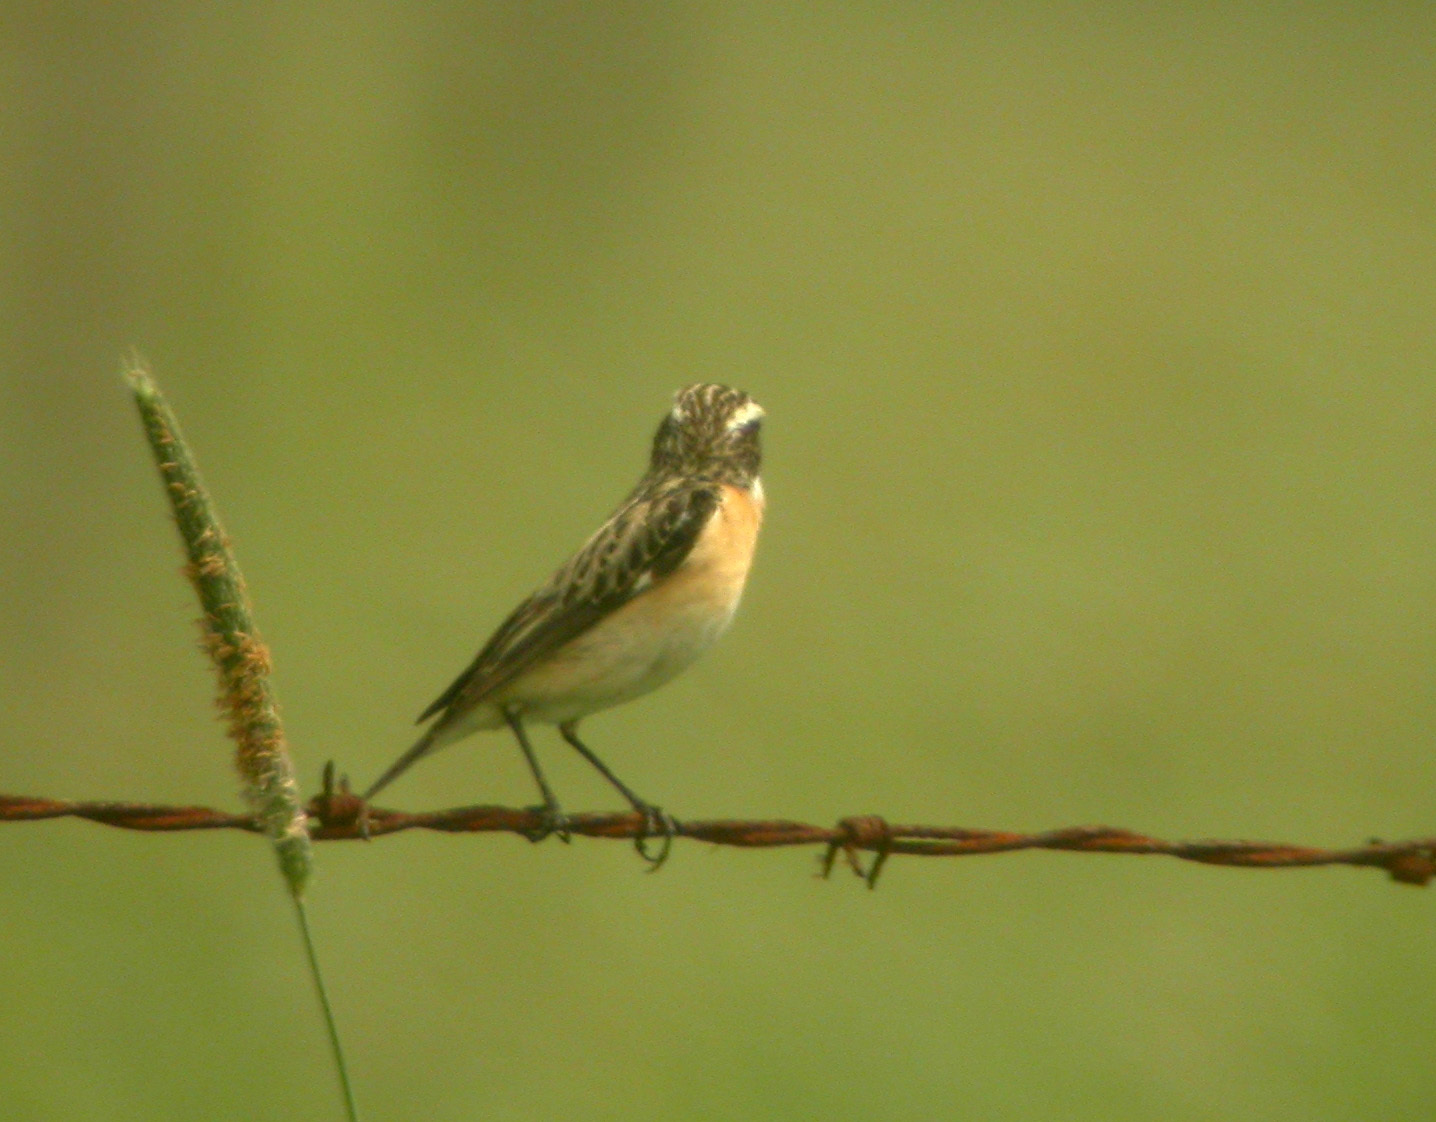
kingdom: Animalia
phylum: Chordata
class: Aves
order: Passeriformes
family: Muscicapidae
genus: Saxicola
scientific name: Saxicola rubetra
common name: Whinchat
